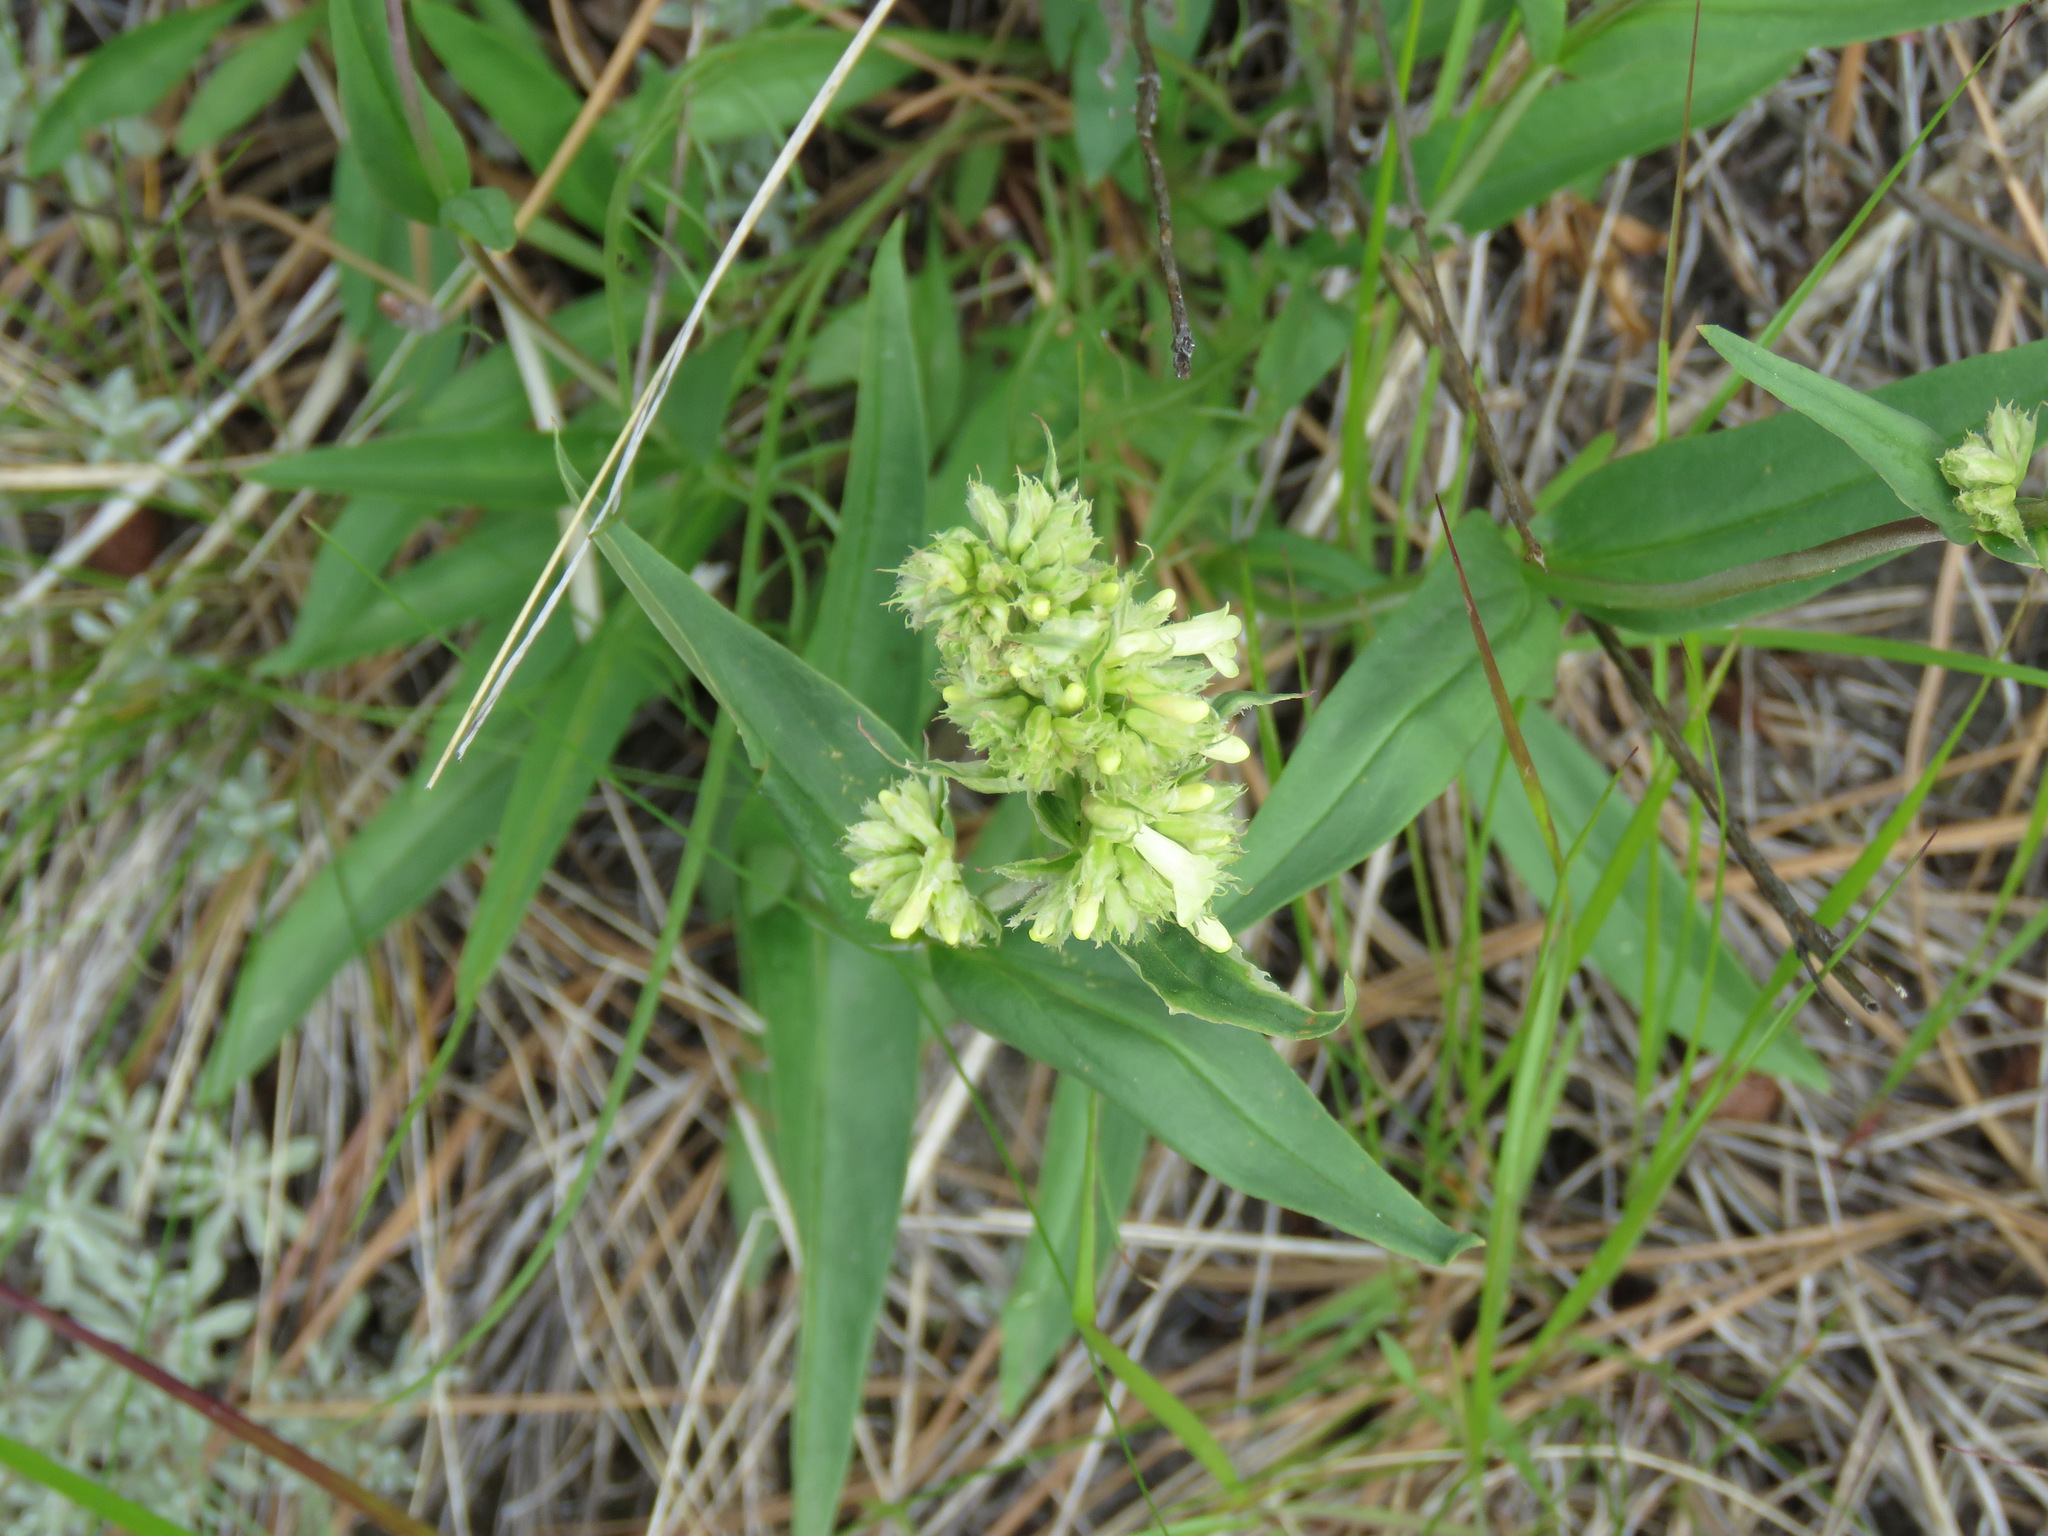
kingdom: Plantae
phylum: Tracheophyta
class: Magnoliopsida
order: Lamiales
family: Plantaginaceae
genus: Penstemon
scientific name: Penstemon confertus
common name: Lesser yellow beardtongue
